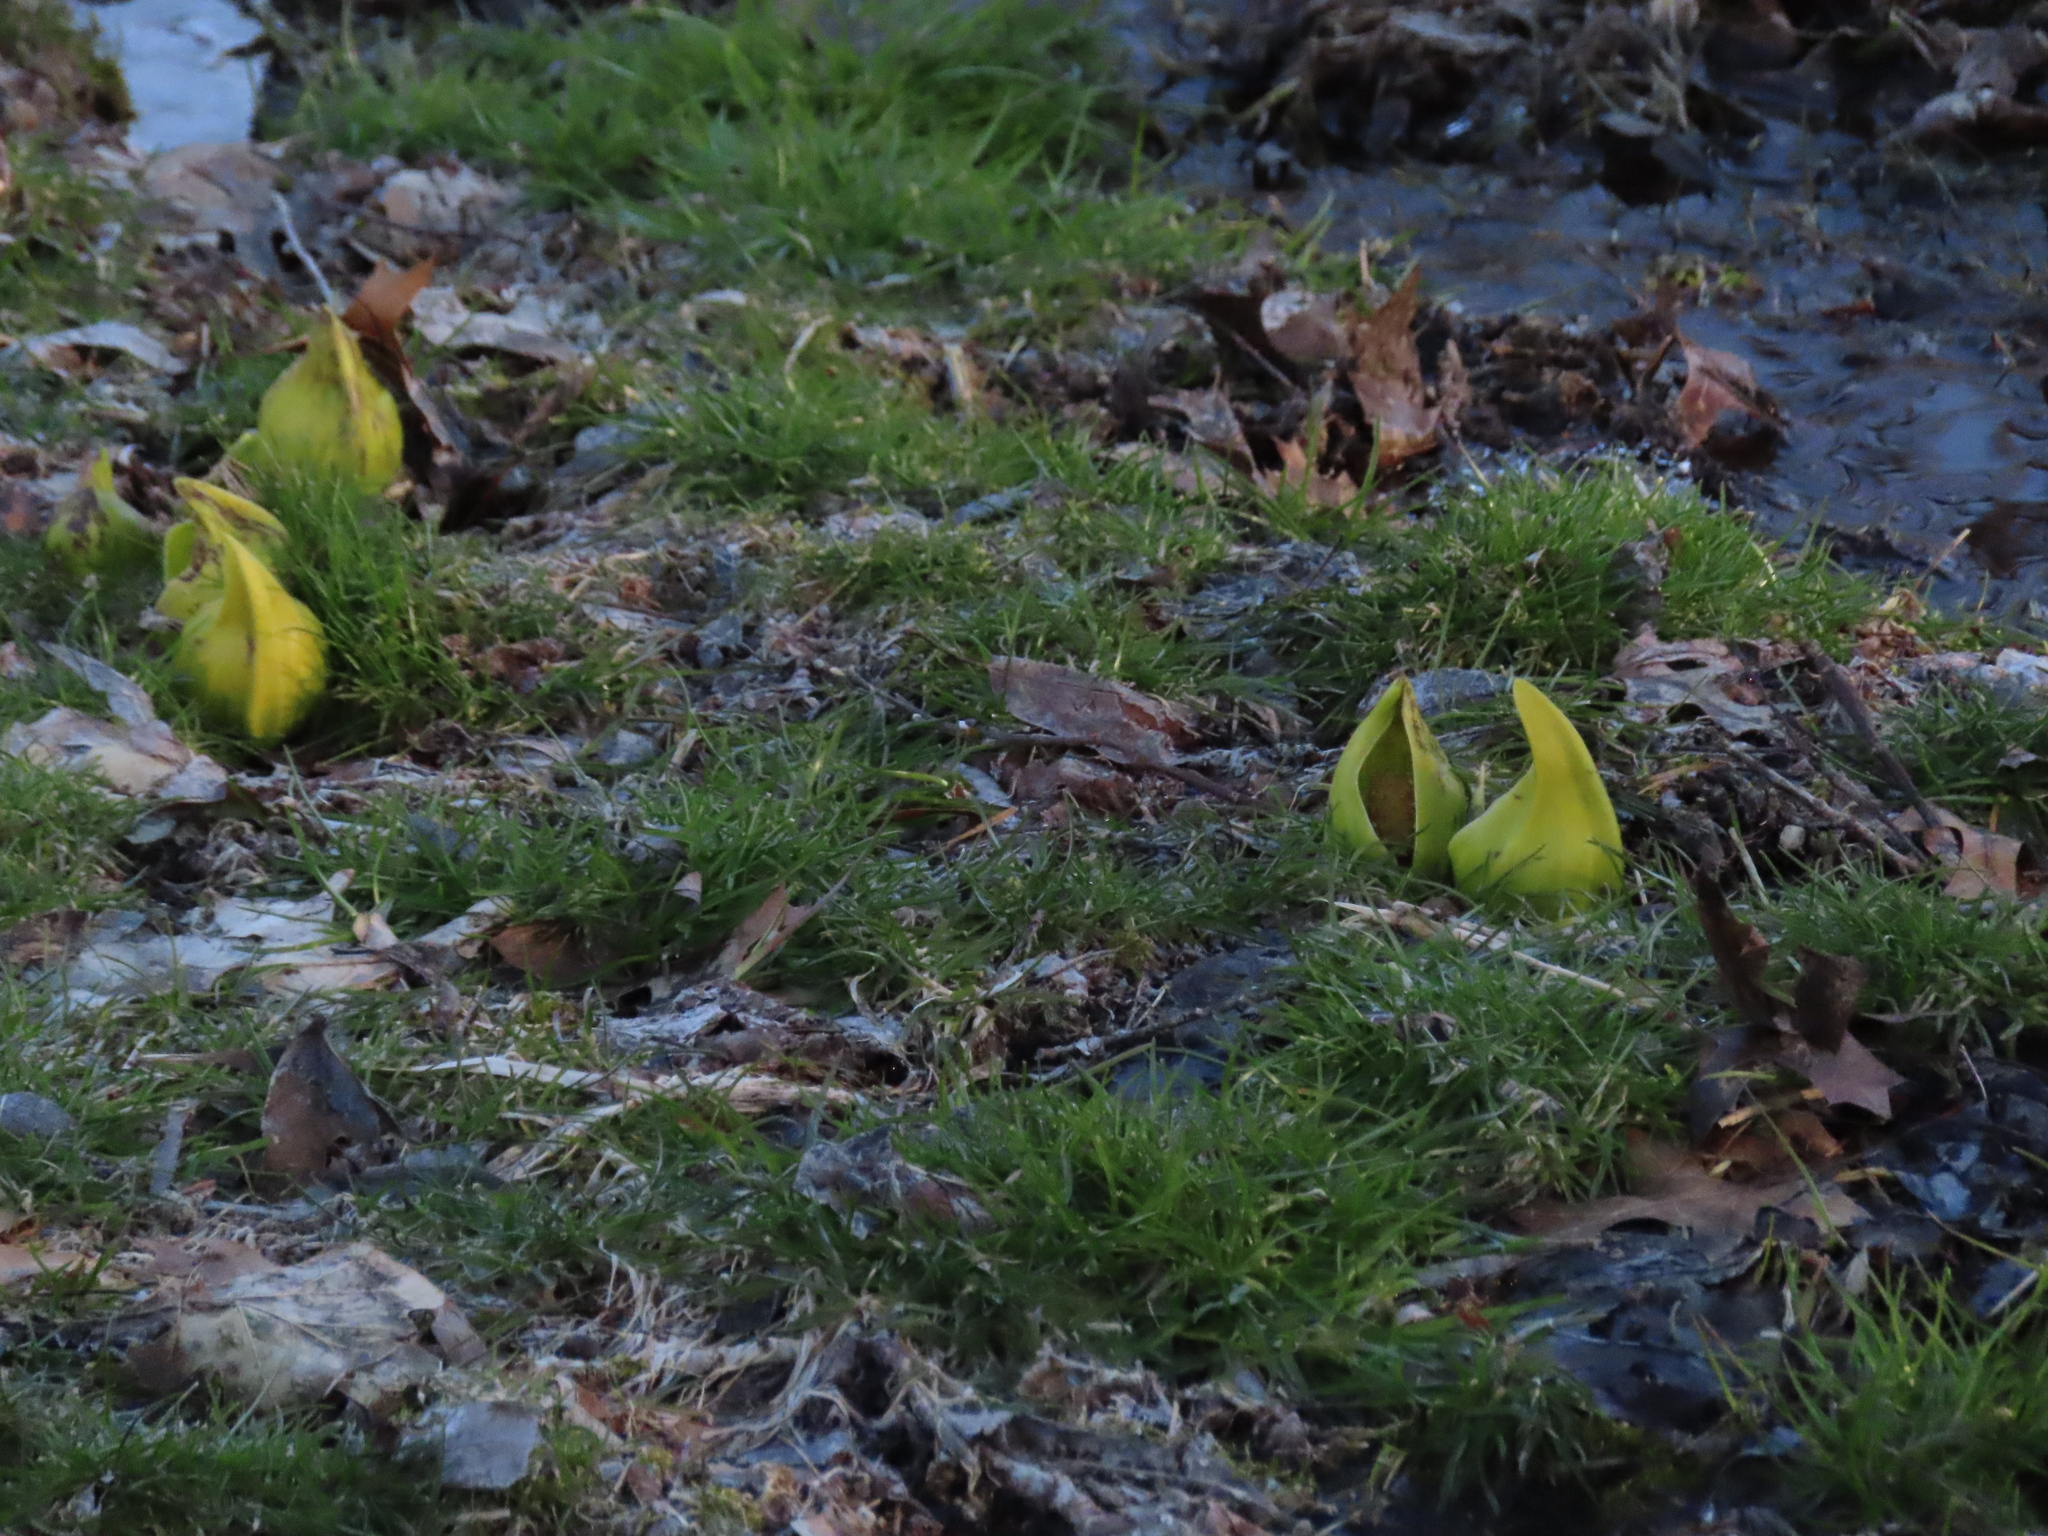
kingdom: Plantae
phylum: Tracheophyta
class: Liliopsida
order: Alismatales
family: Araceae
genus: Symplocarpus
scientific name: Symplocarpus foetidus
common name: Eastern skunk cabbage
